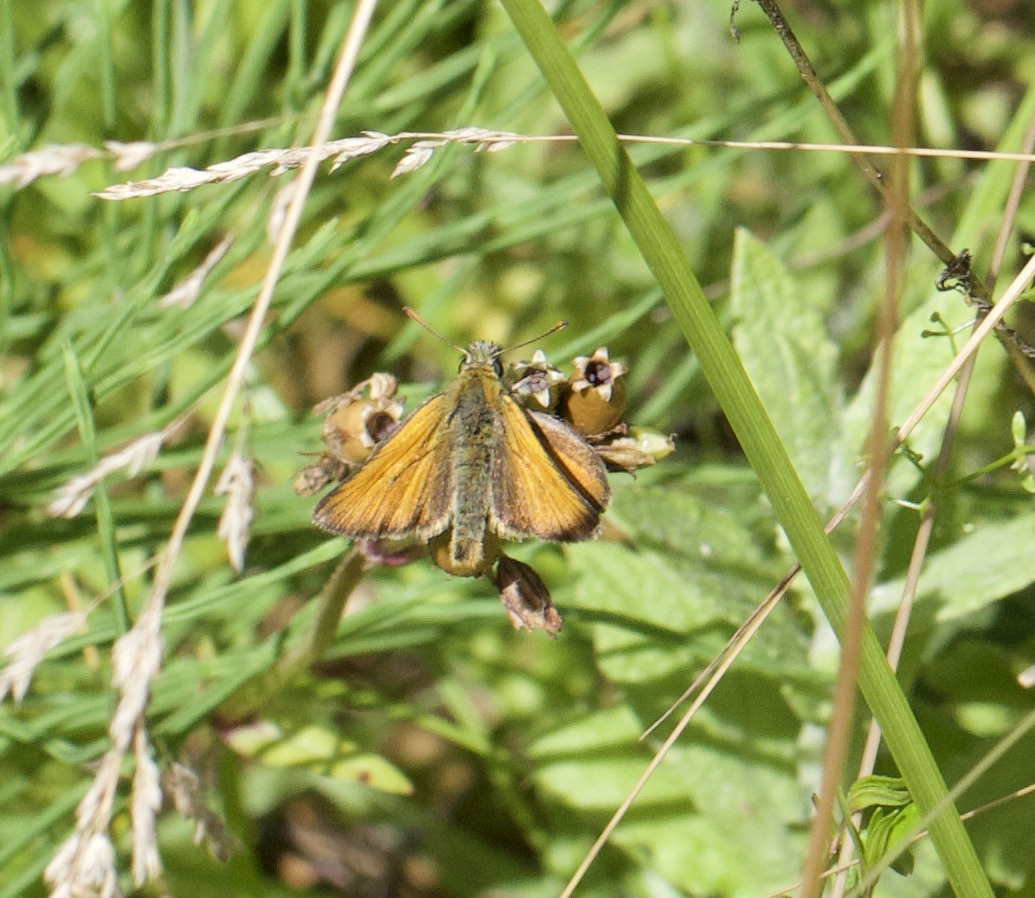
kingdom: Animalia
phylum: Arthropoda
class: Insecta
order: Lepidoptera
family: Hesperiidae
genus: Thymelicus
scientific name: Thymelicus sylvestris
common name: Small skipper
